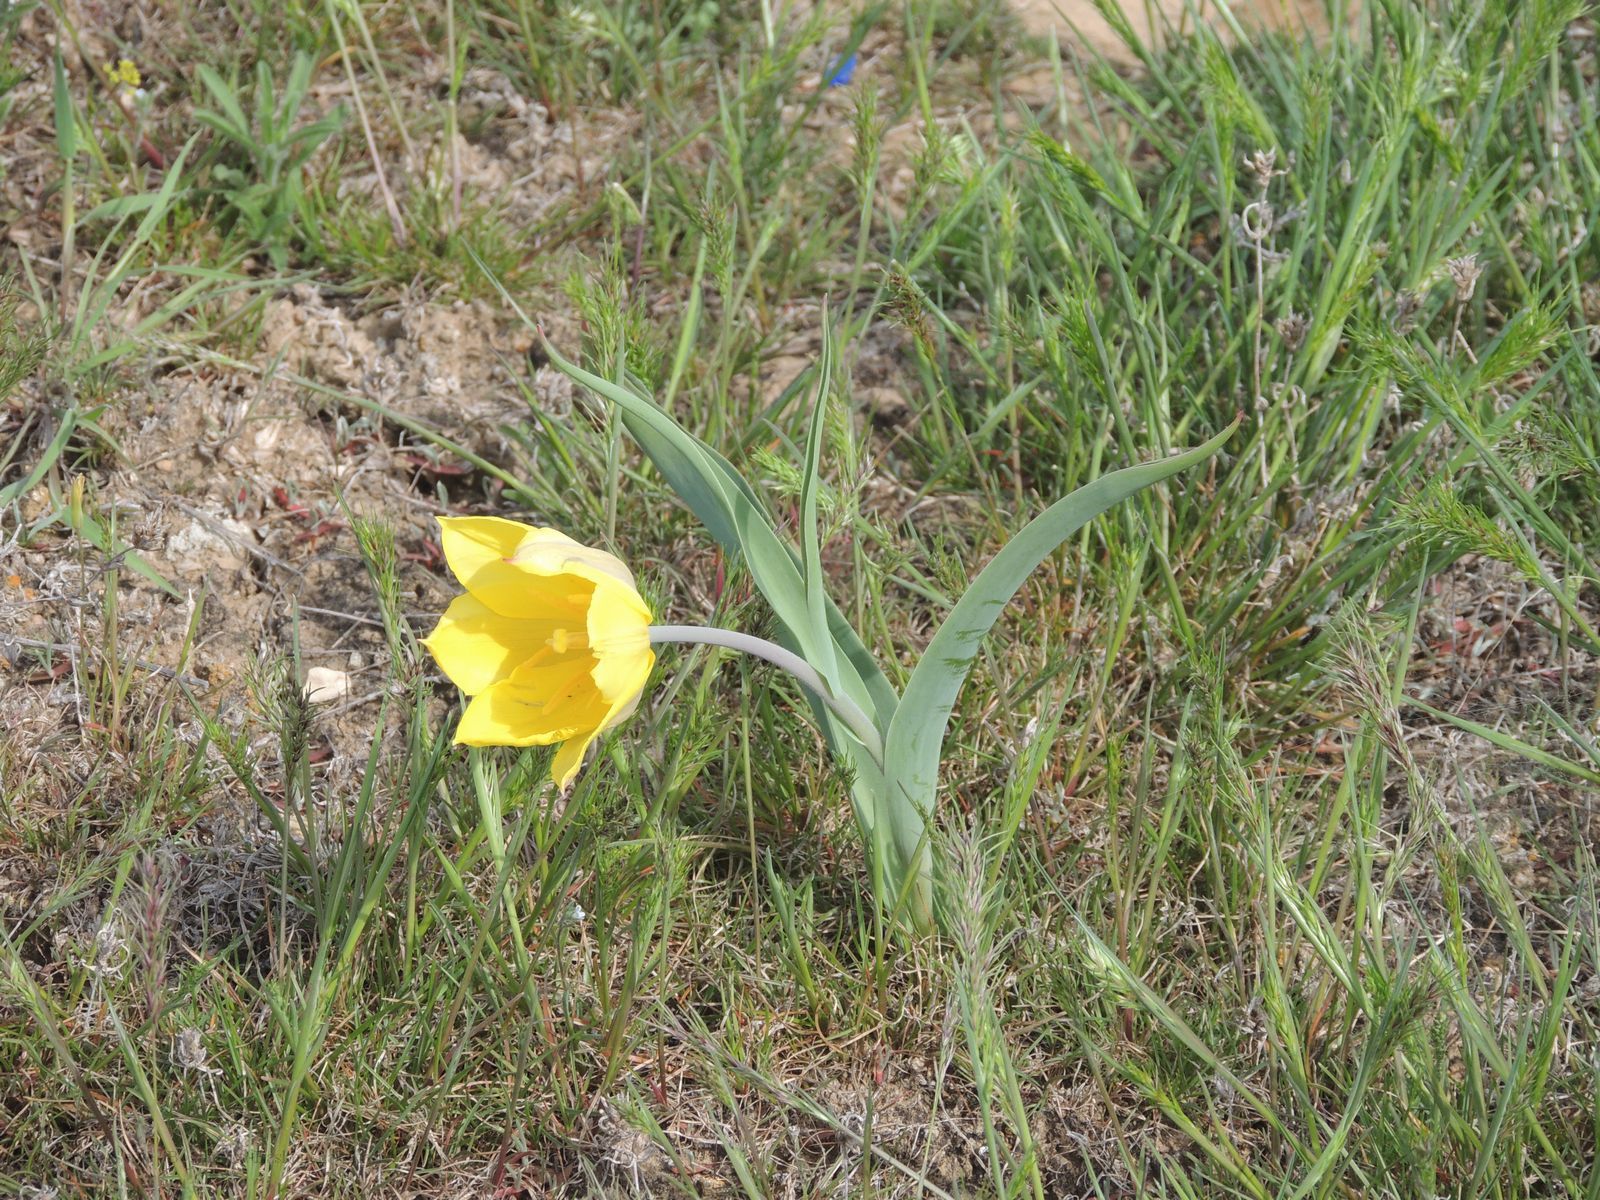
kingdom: Plantae
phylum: Tracheophyta
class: Liliopsida
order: Liliales
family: Liliaceae
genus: Tulipa
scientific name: Tulipa suaveolens
